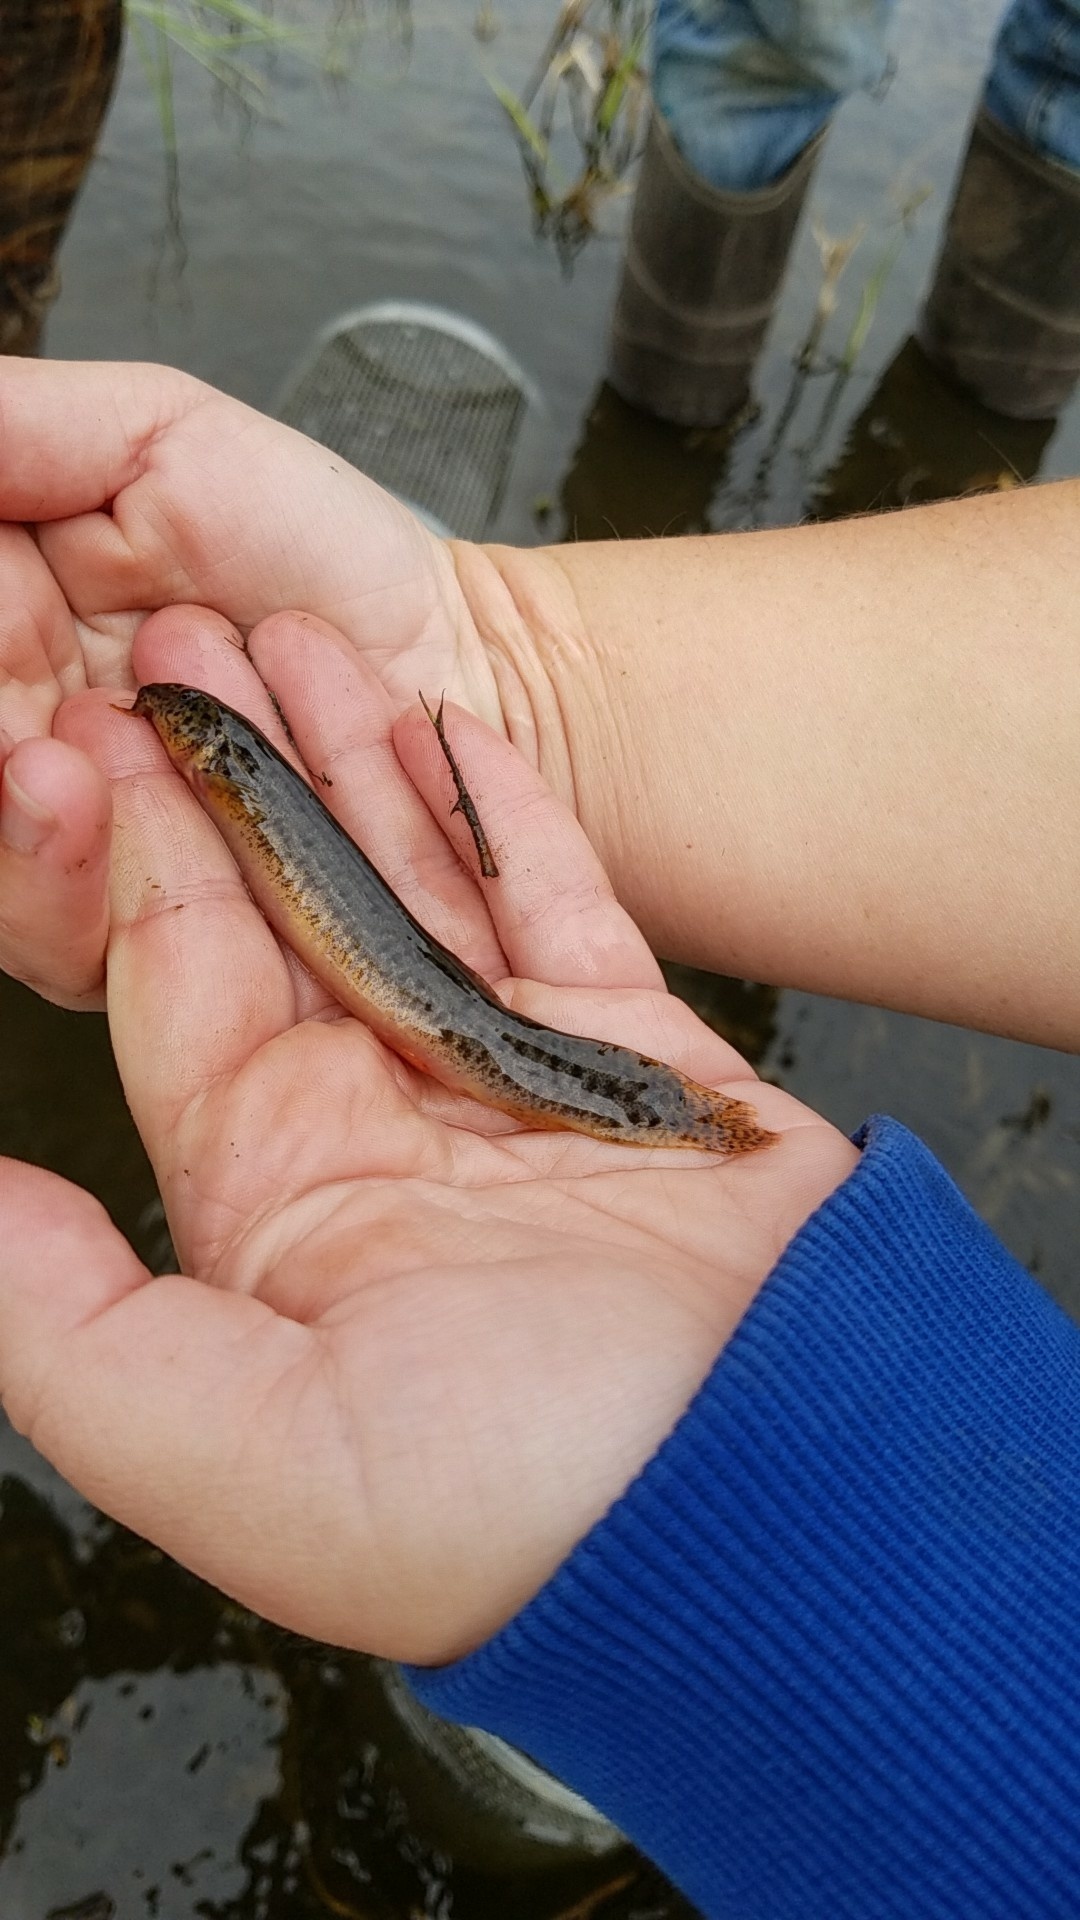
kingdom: Animalia
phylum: Chordata
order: Cypriniformes
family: Cobitidae
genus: Misgurnus
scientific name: Misgurnus anguillicaudatus
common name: Oriental weatherfish
